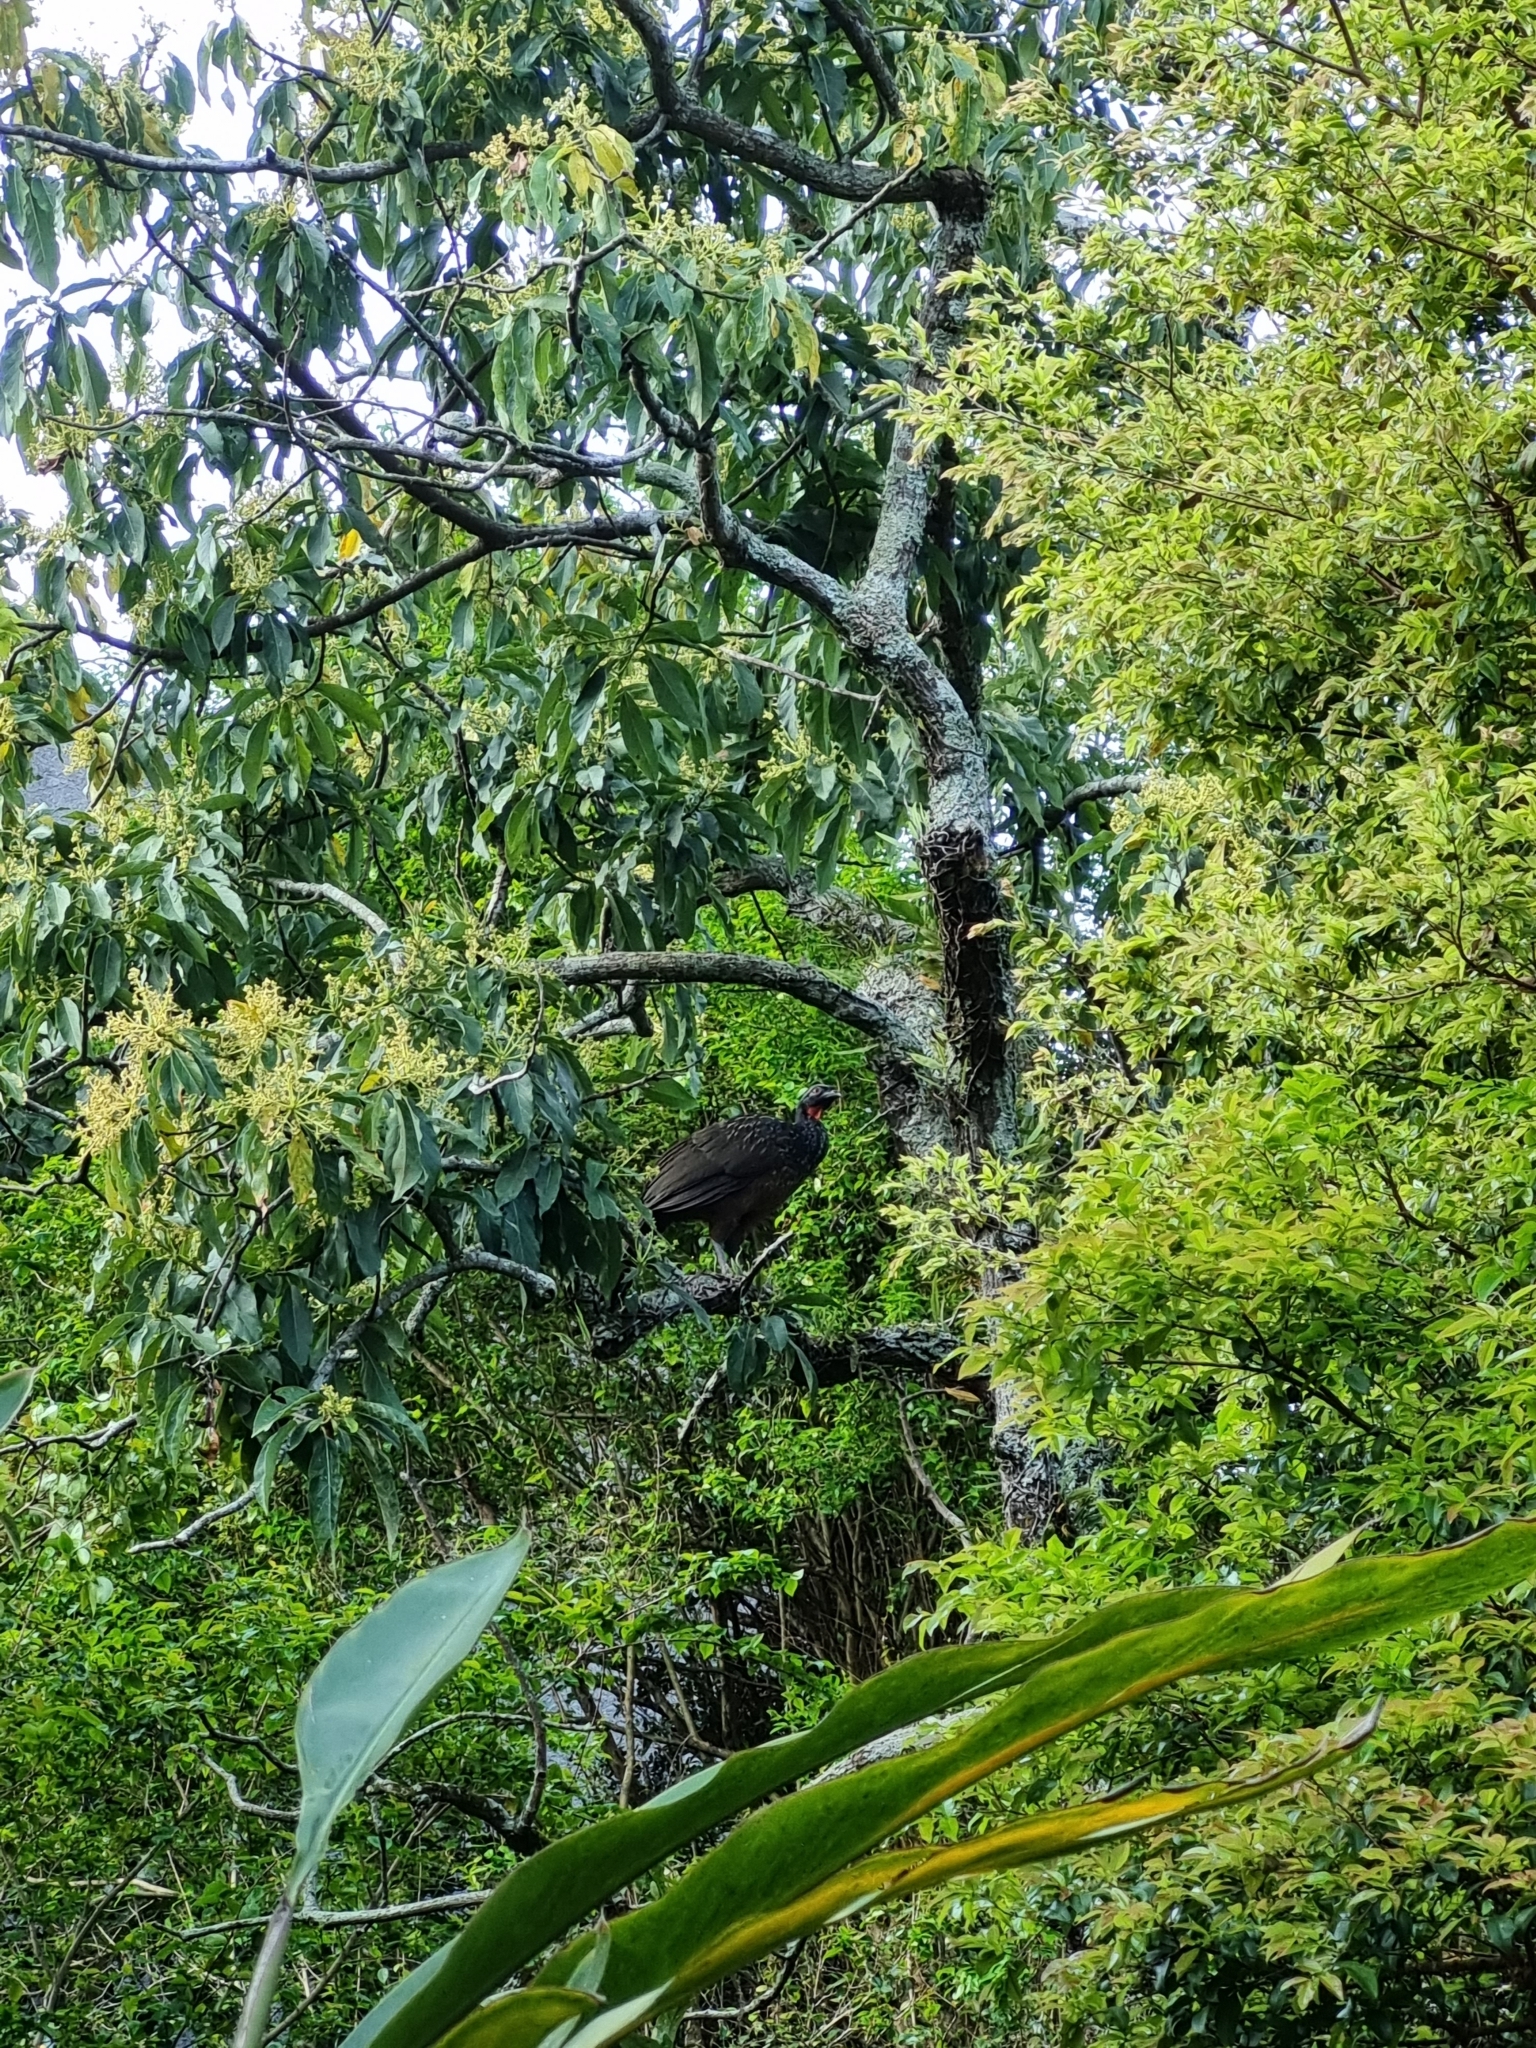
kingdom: Animalia
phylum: Chordata
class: Aves
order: Galliformes
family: Cracidae
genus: Penelope
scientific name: Penelope obscura
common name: Dusky-legged guan
